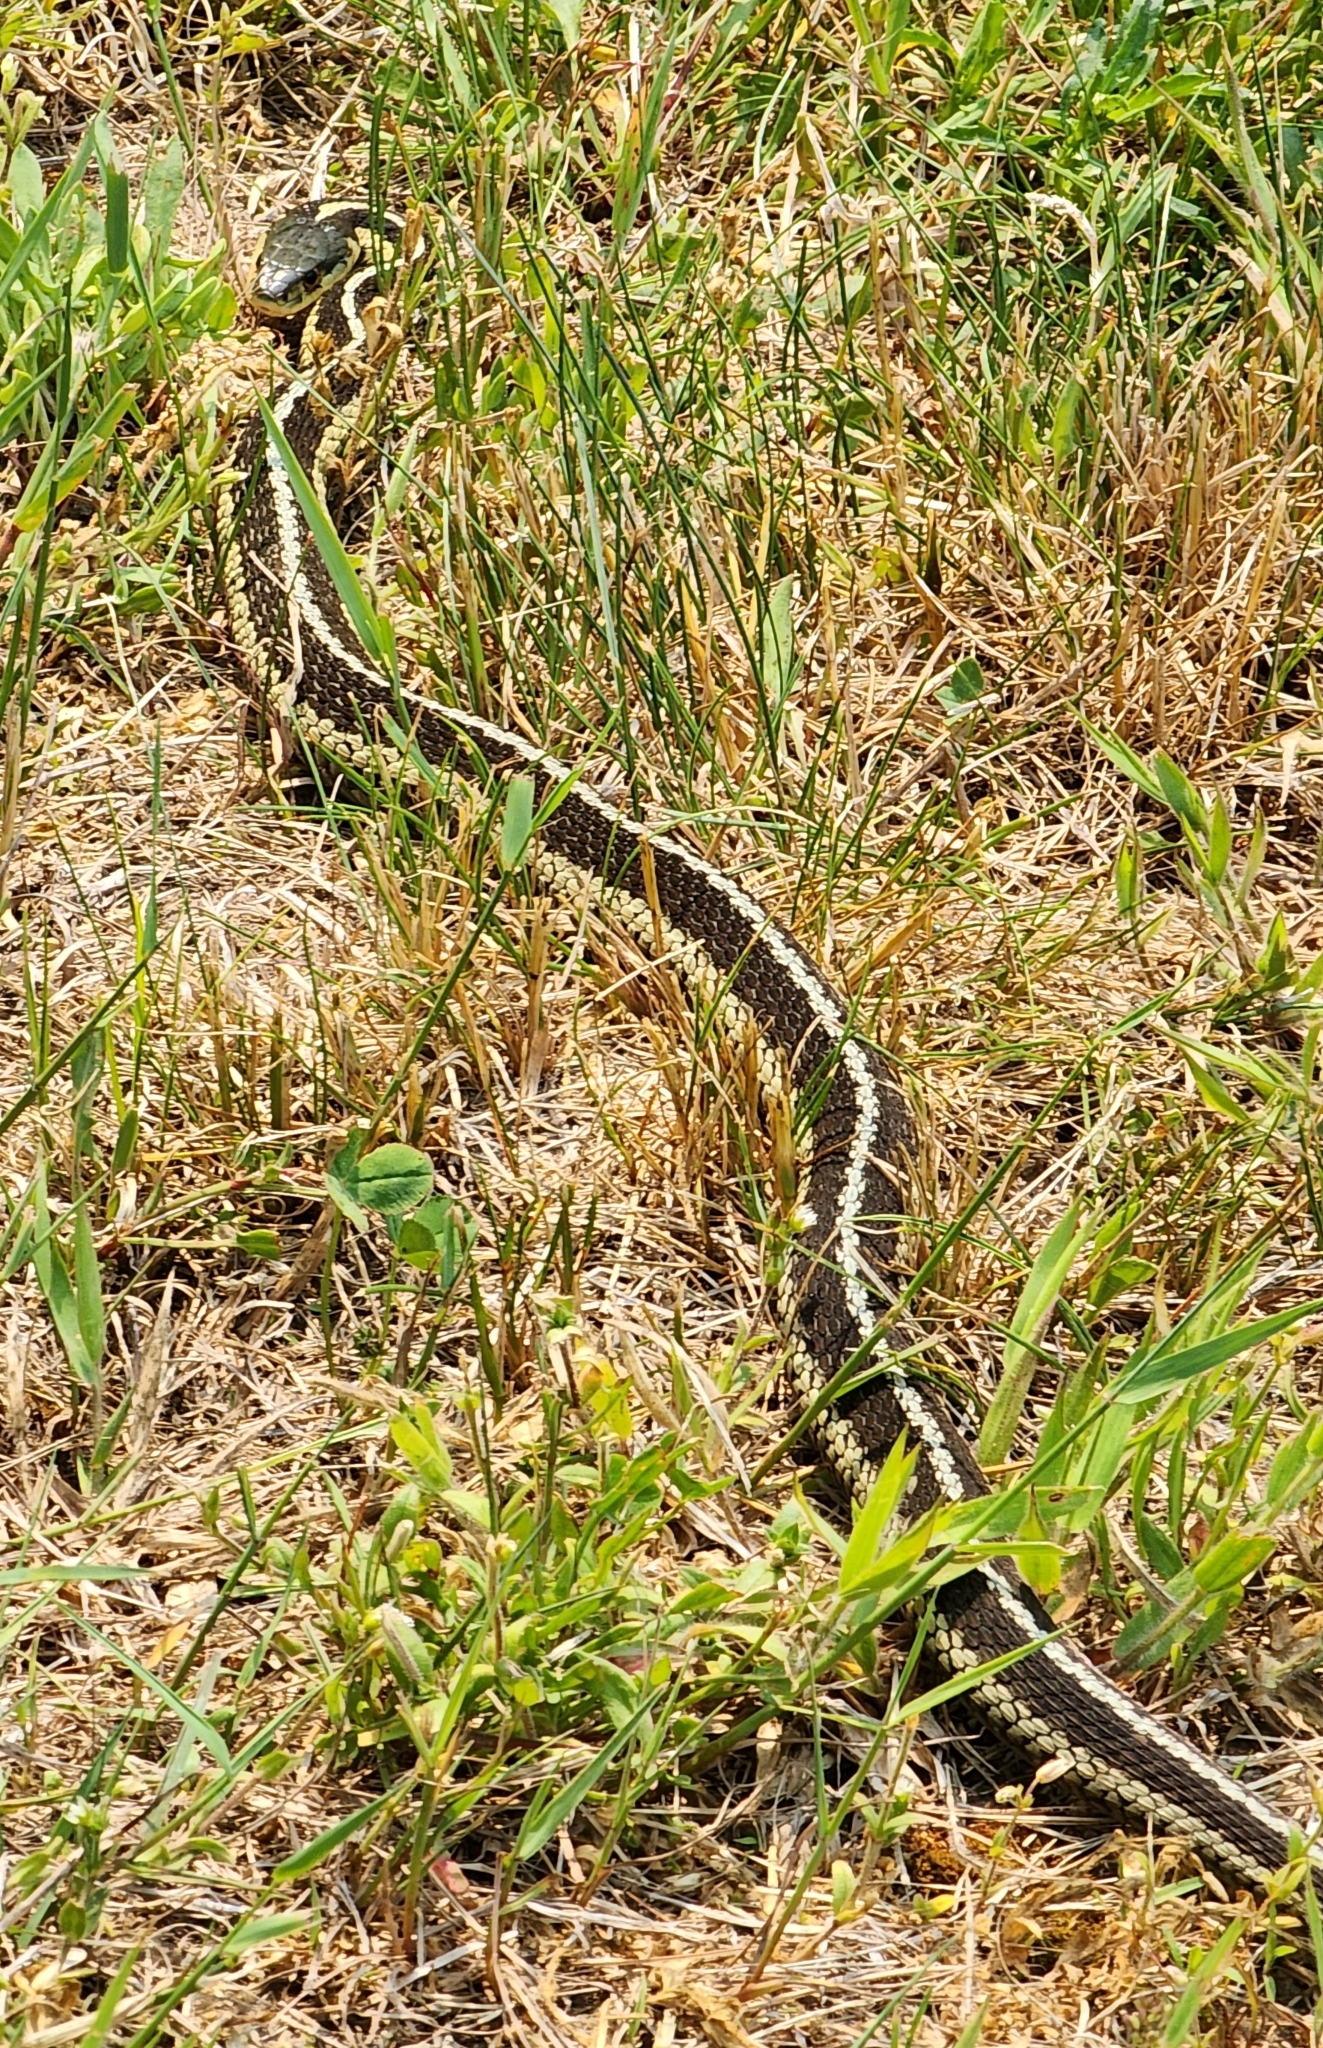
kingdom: Animalia
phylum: Chordata
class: Squamata
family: Colubridae
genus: Thamnophis
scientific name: Thamnophis sirtalis
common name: Common garter snake
